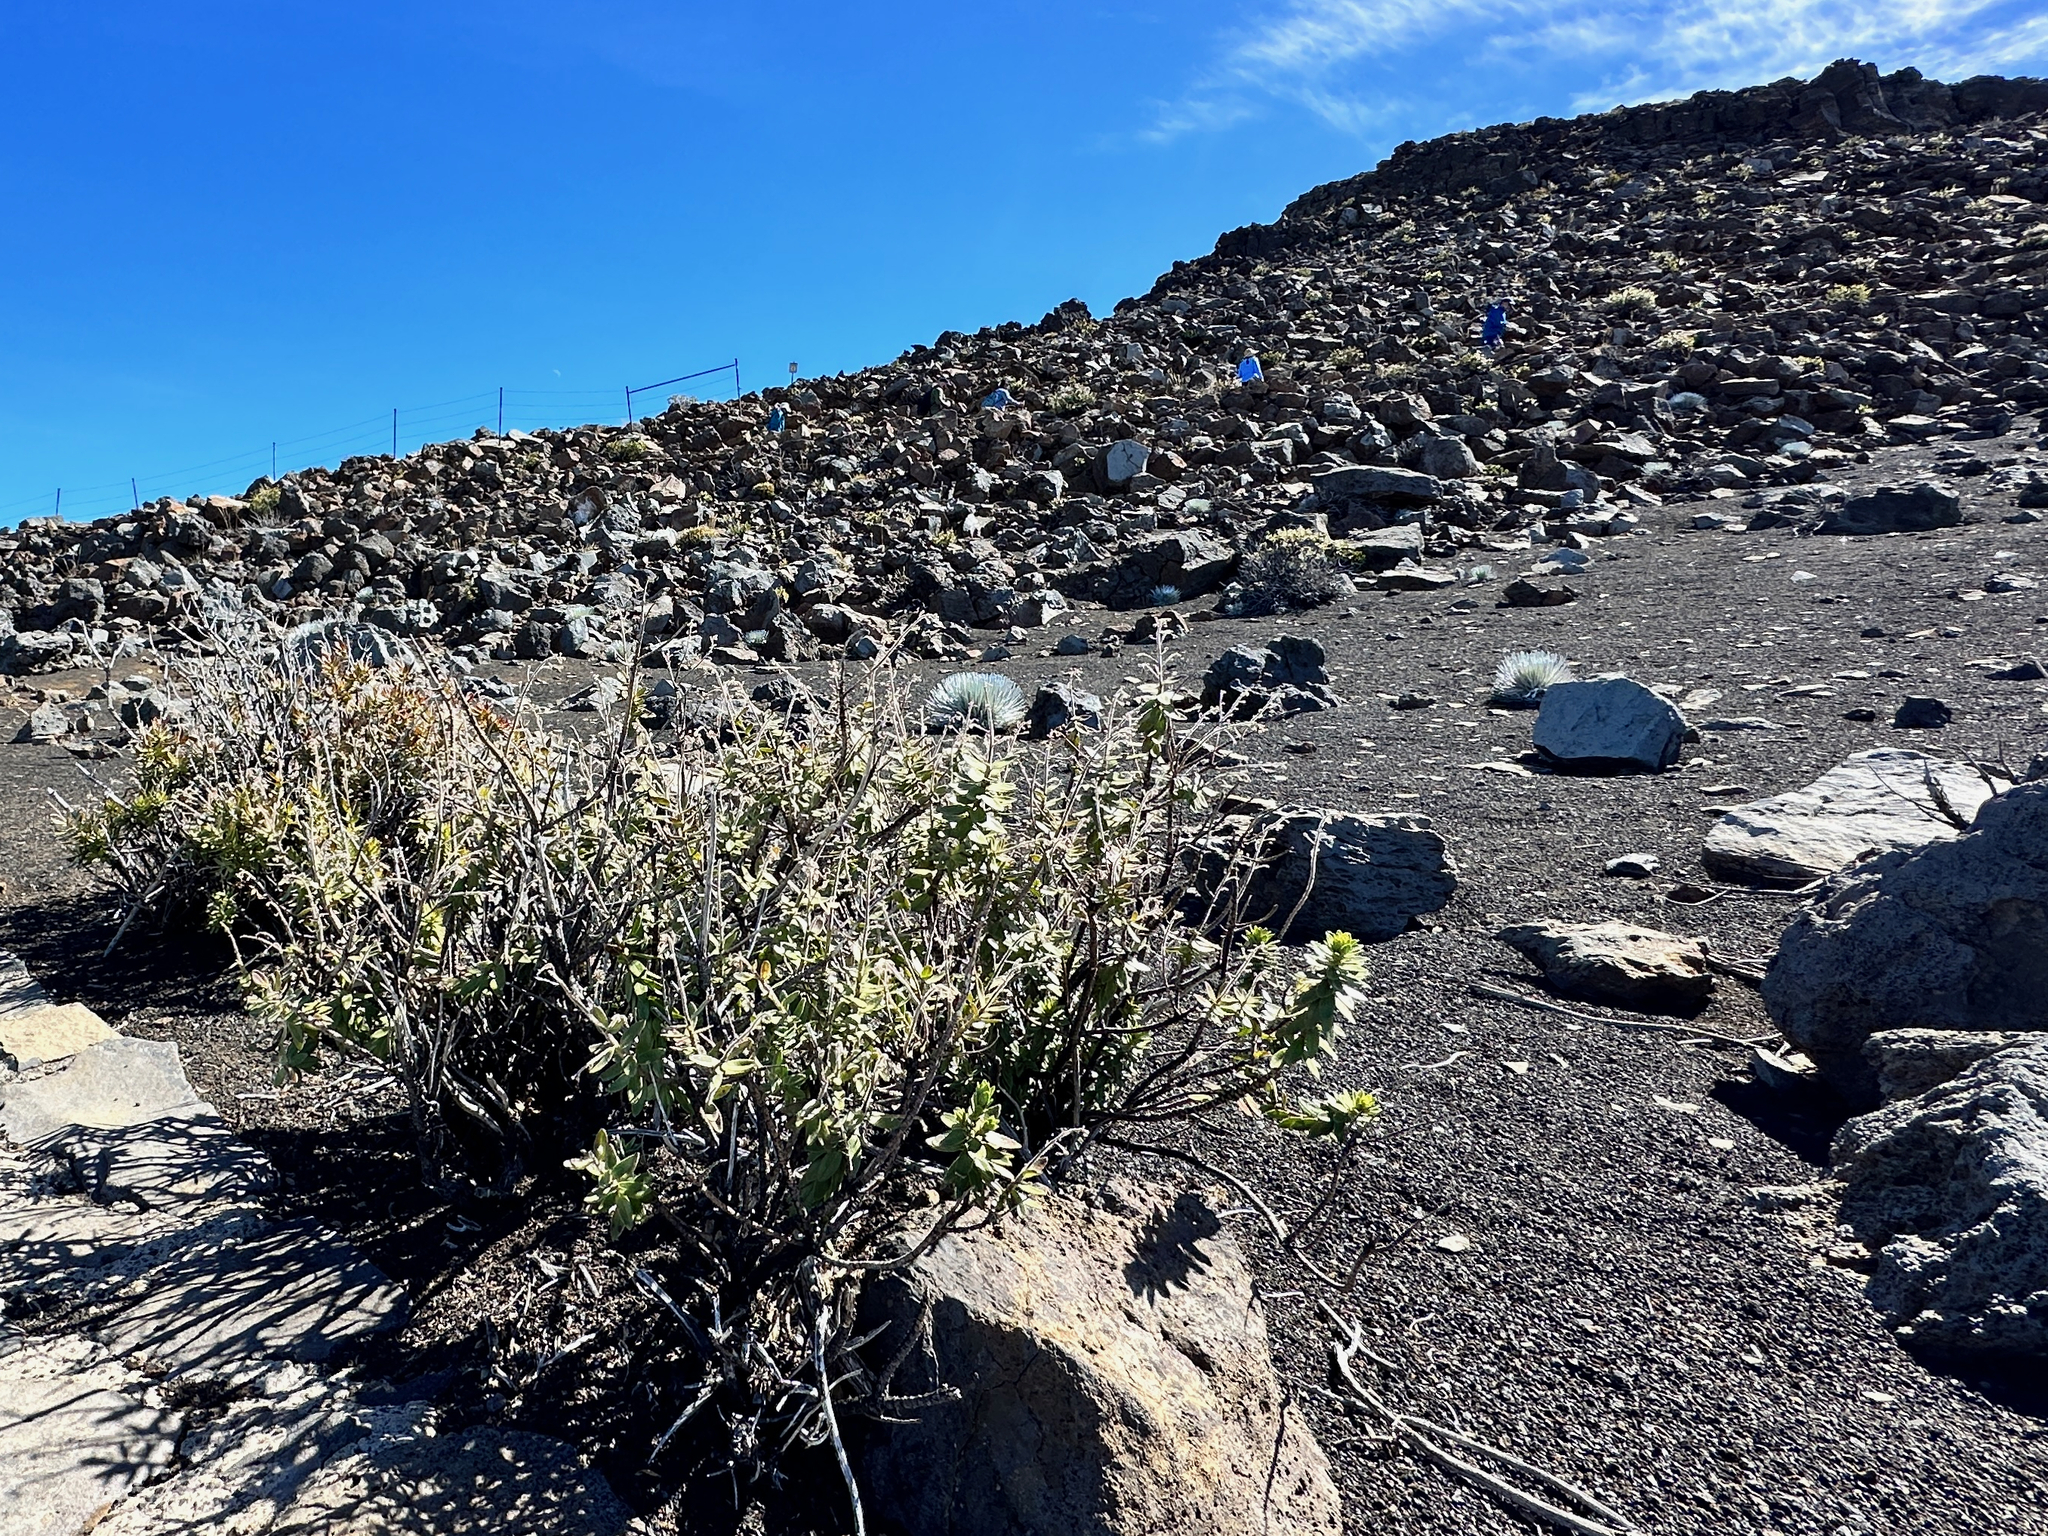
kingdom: Plantae
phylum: Tracheophyta
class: Magnoliopsida
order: Asterales
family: Asteraceae
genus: Dubautia
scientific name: Dubautia menziesii
